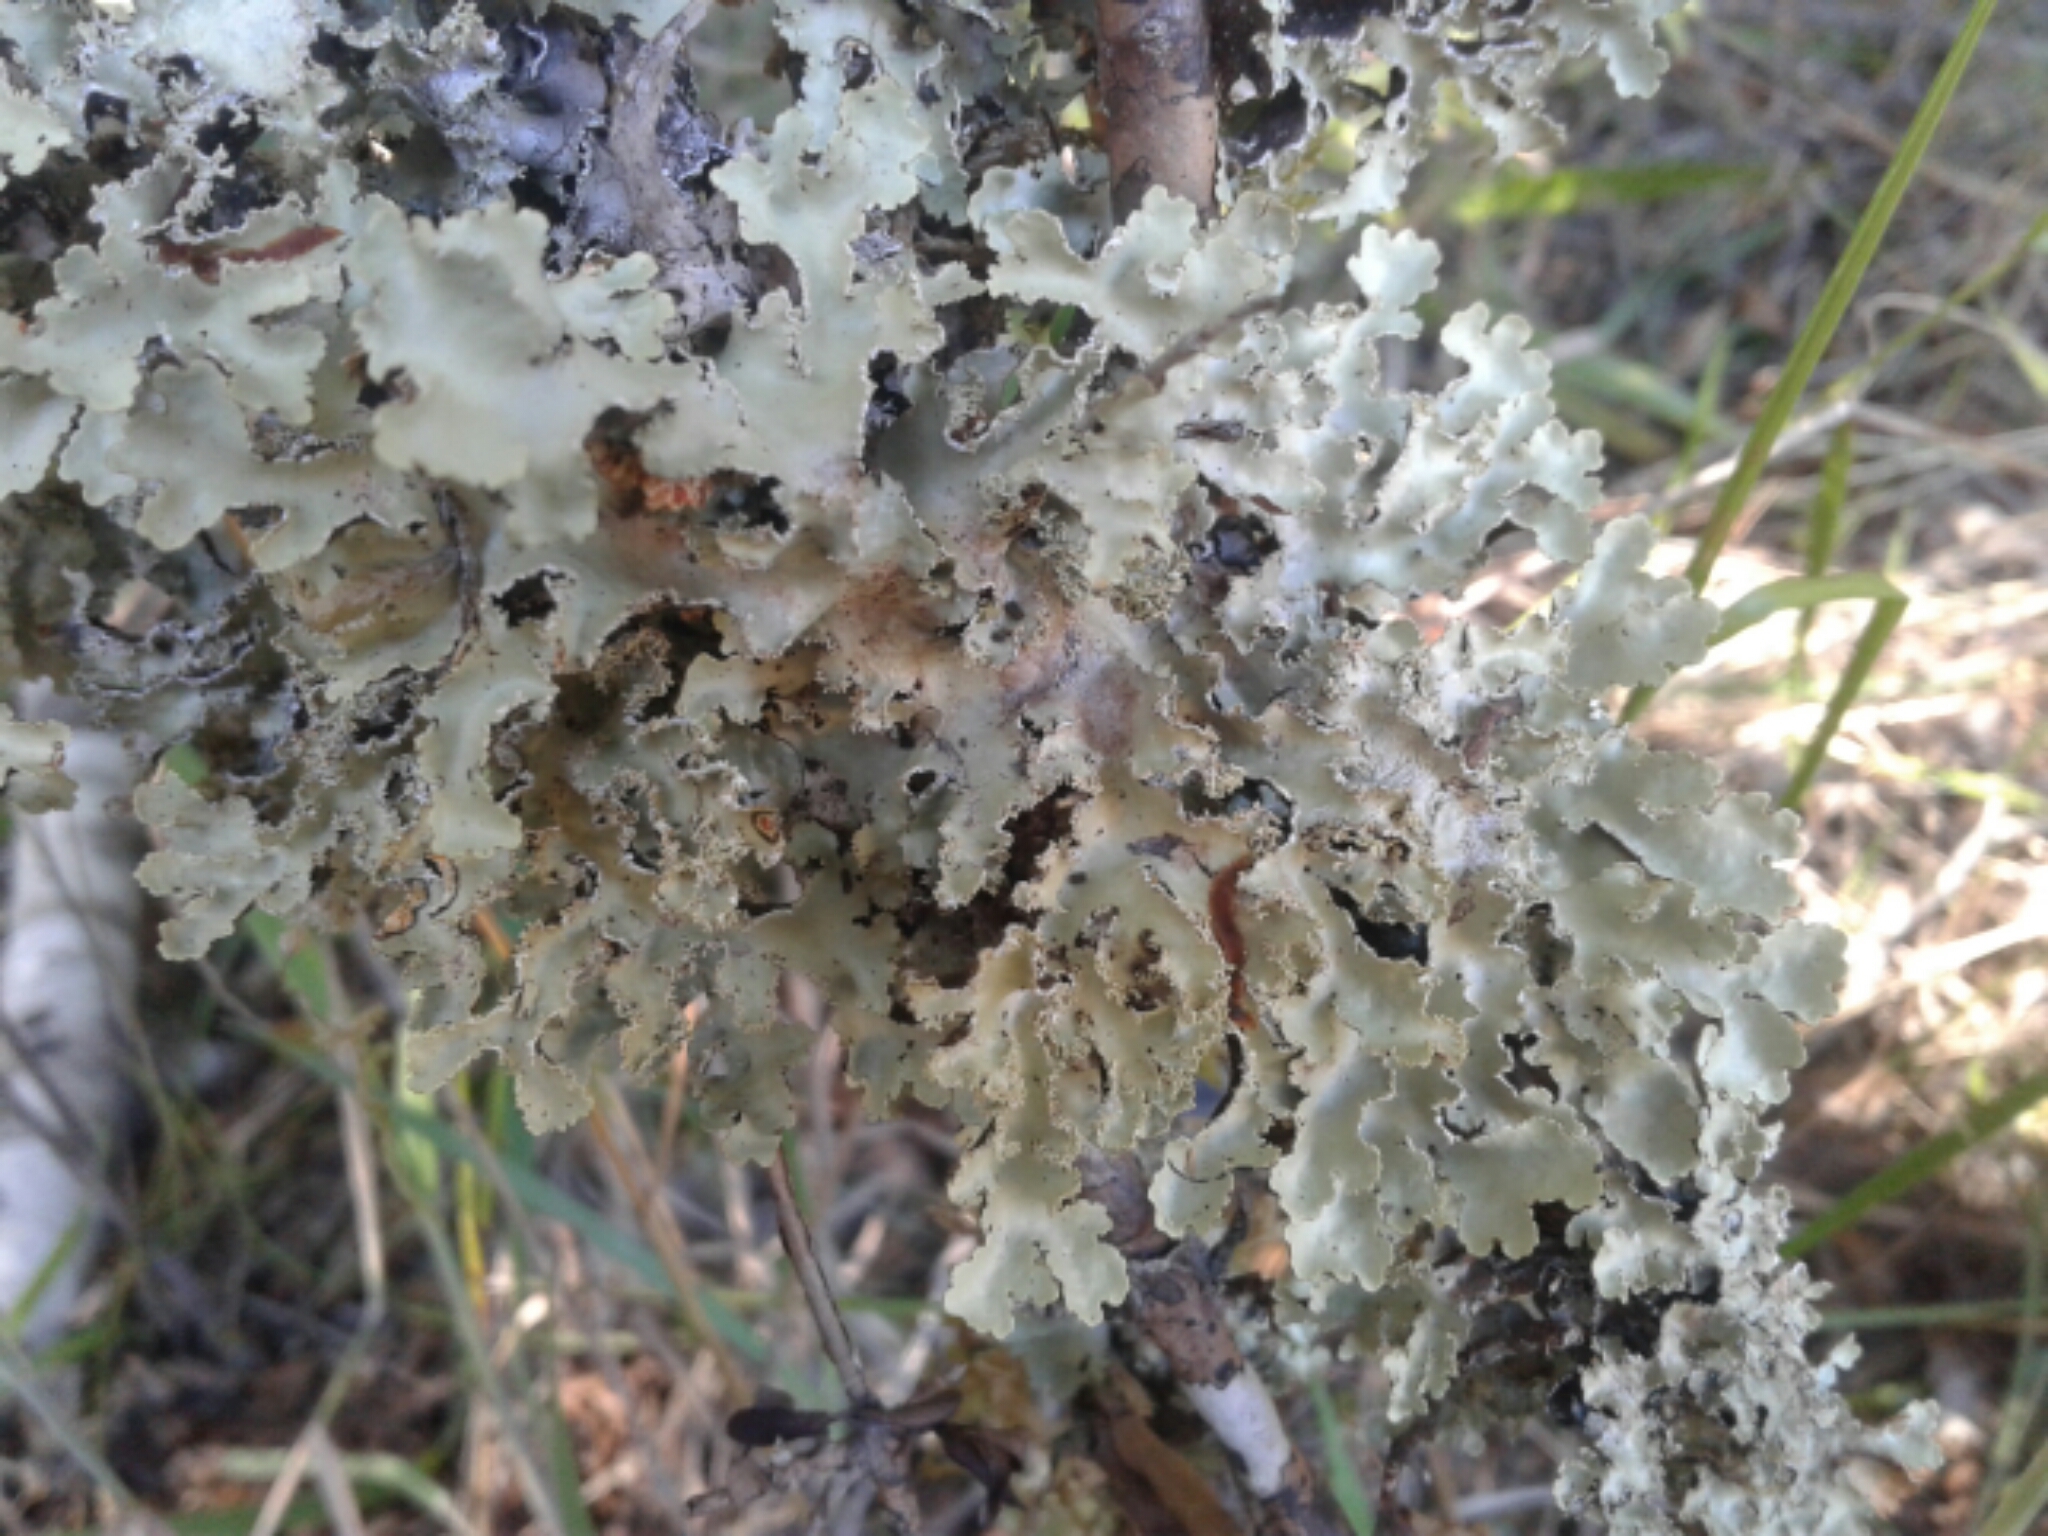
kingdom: Fungi
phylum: Ascomycota
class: Lecanoromycetes
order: Peltigerales
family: Lobariaceae
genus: Pseudocyphellaria
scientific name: Pseudocyphellaria glabra
